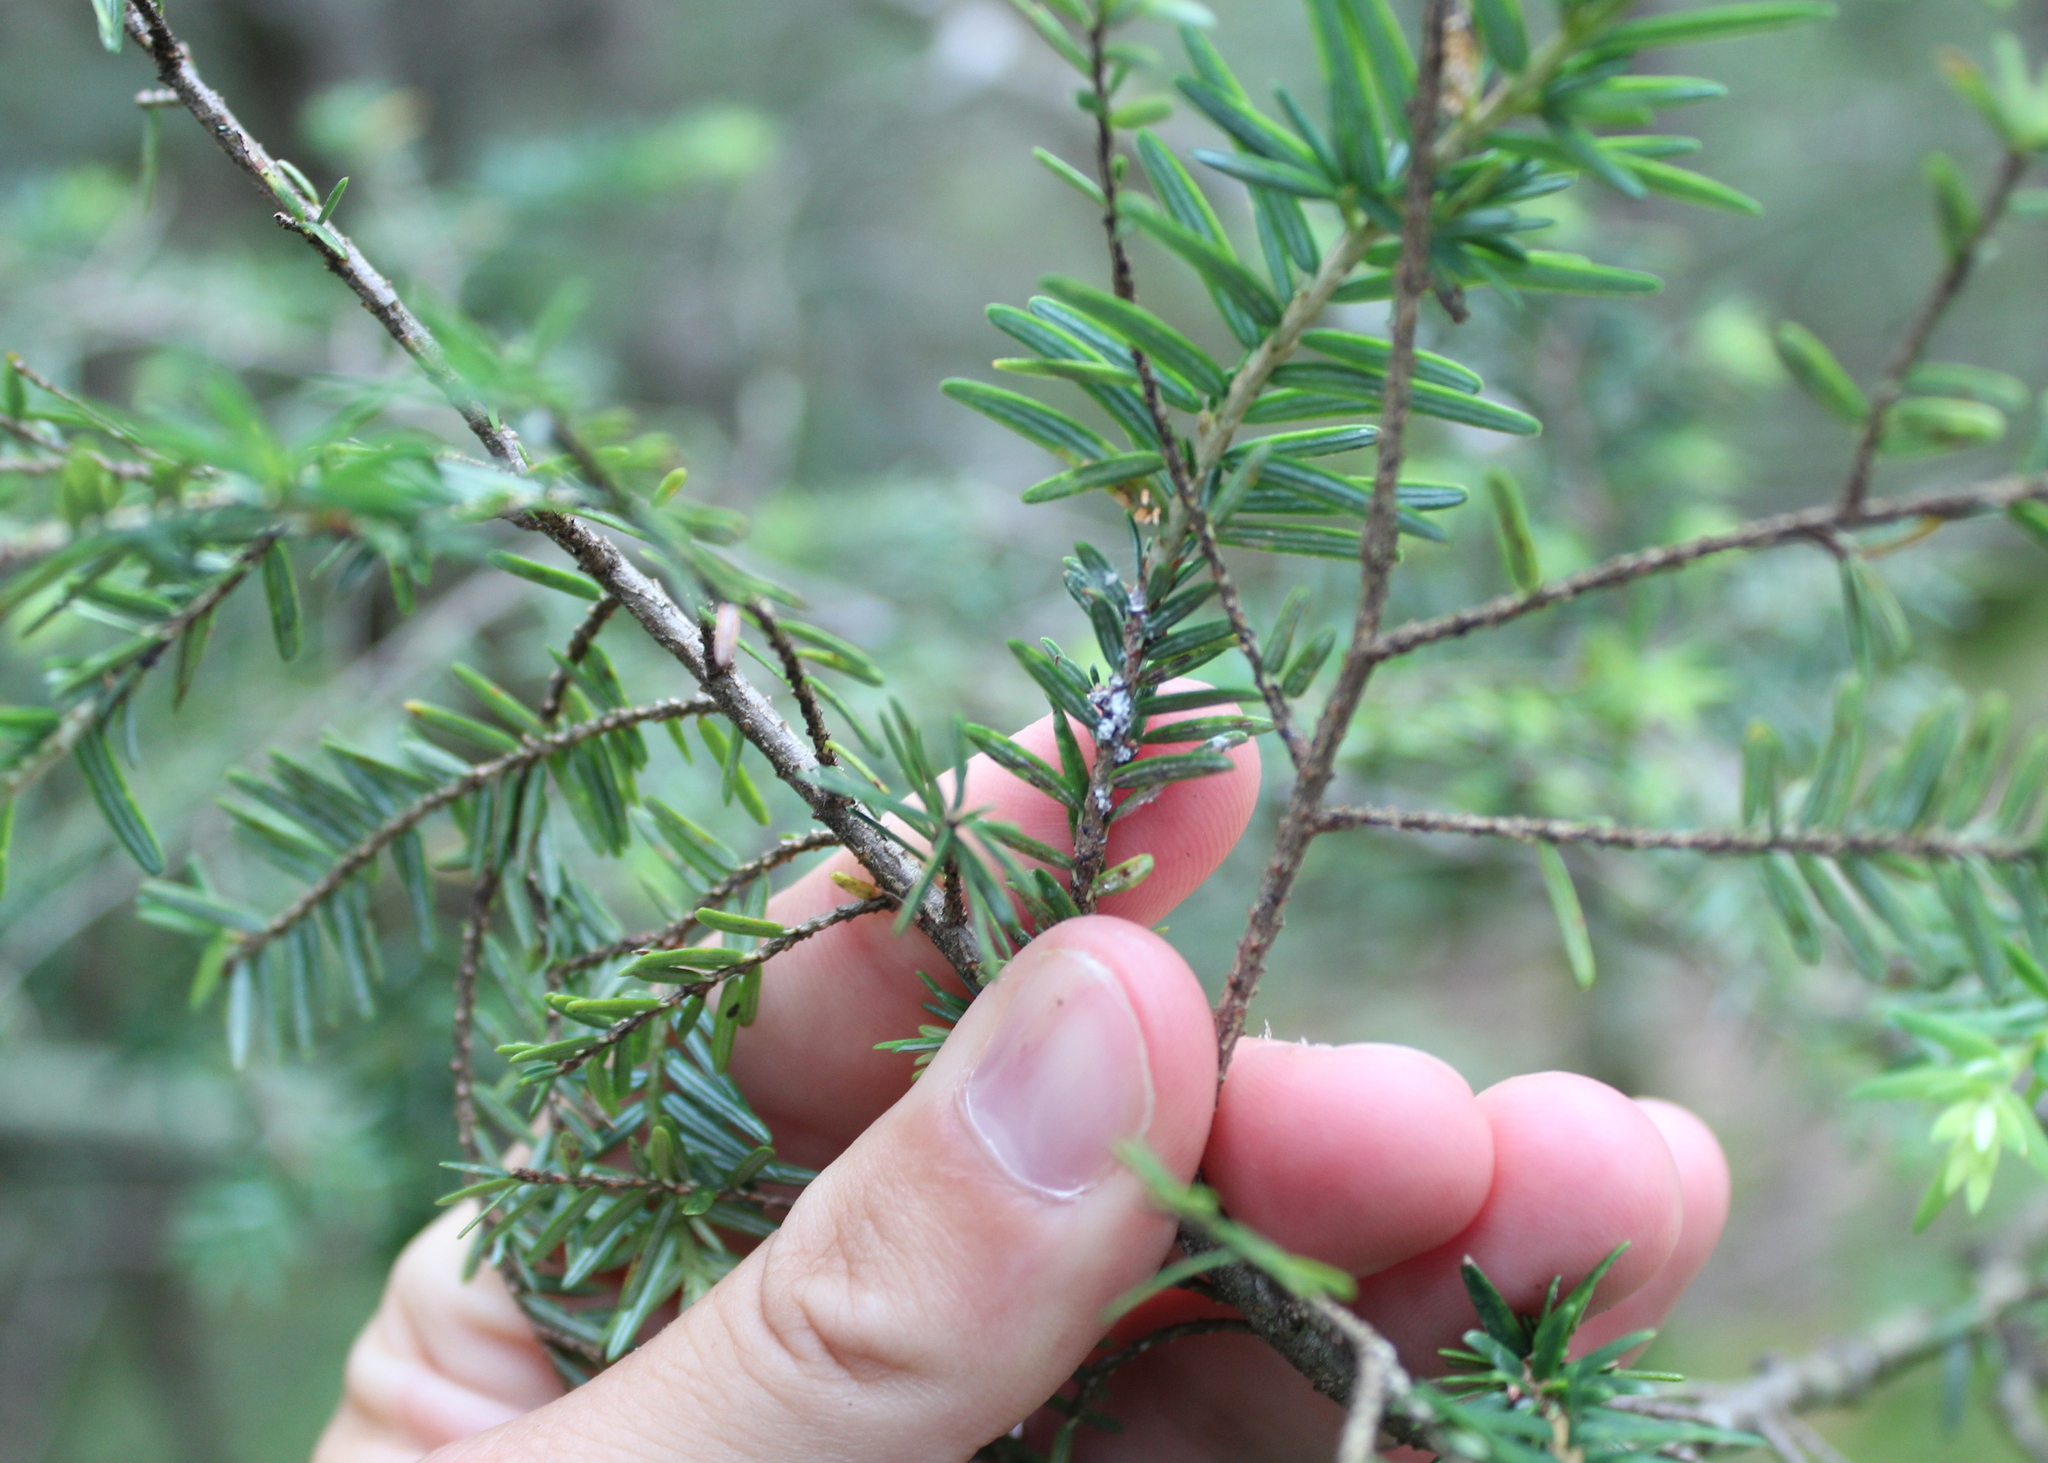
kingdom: Animalia
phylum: Arthropoda
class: Insecta
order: Hemiptera
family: Adelgidae
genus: Adelges
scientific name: Adelges tsugae
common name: Hemlock woolly adelgid
